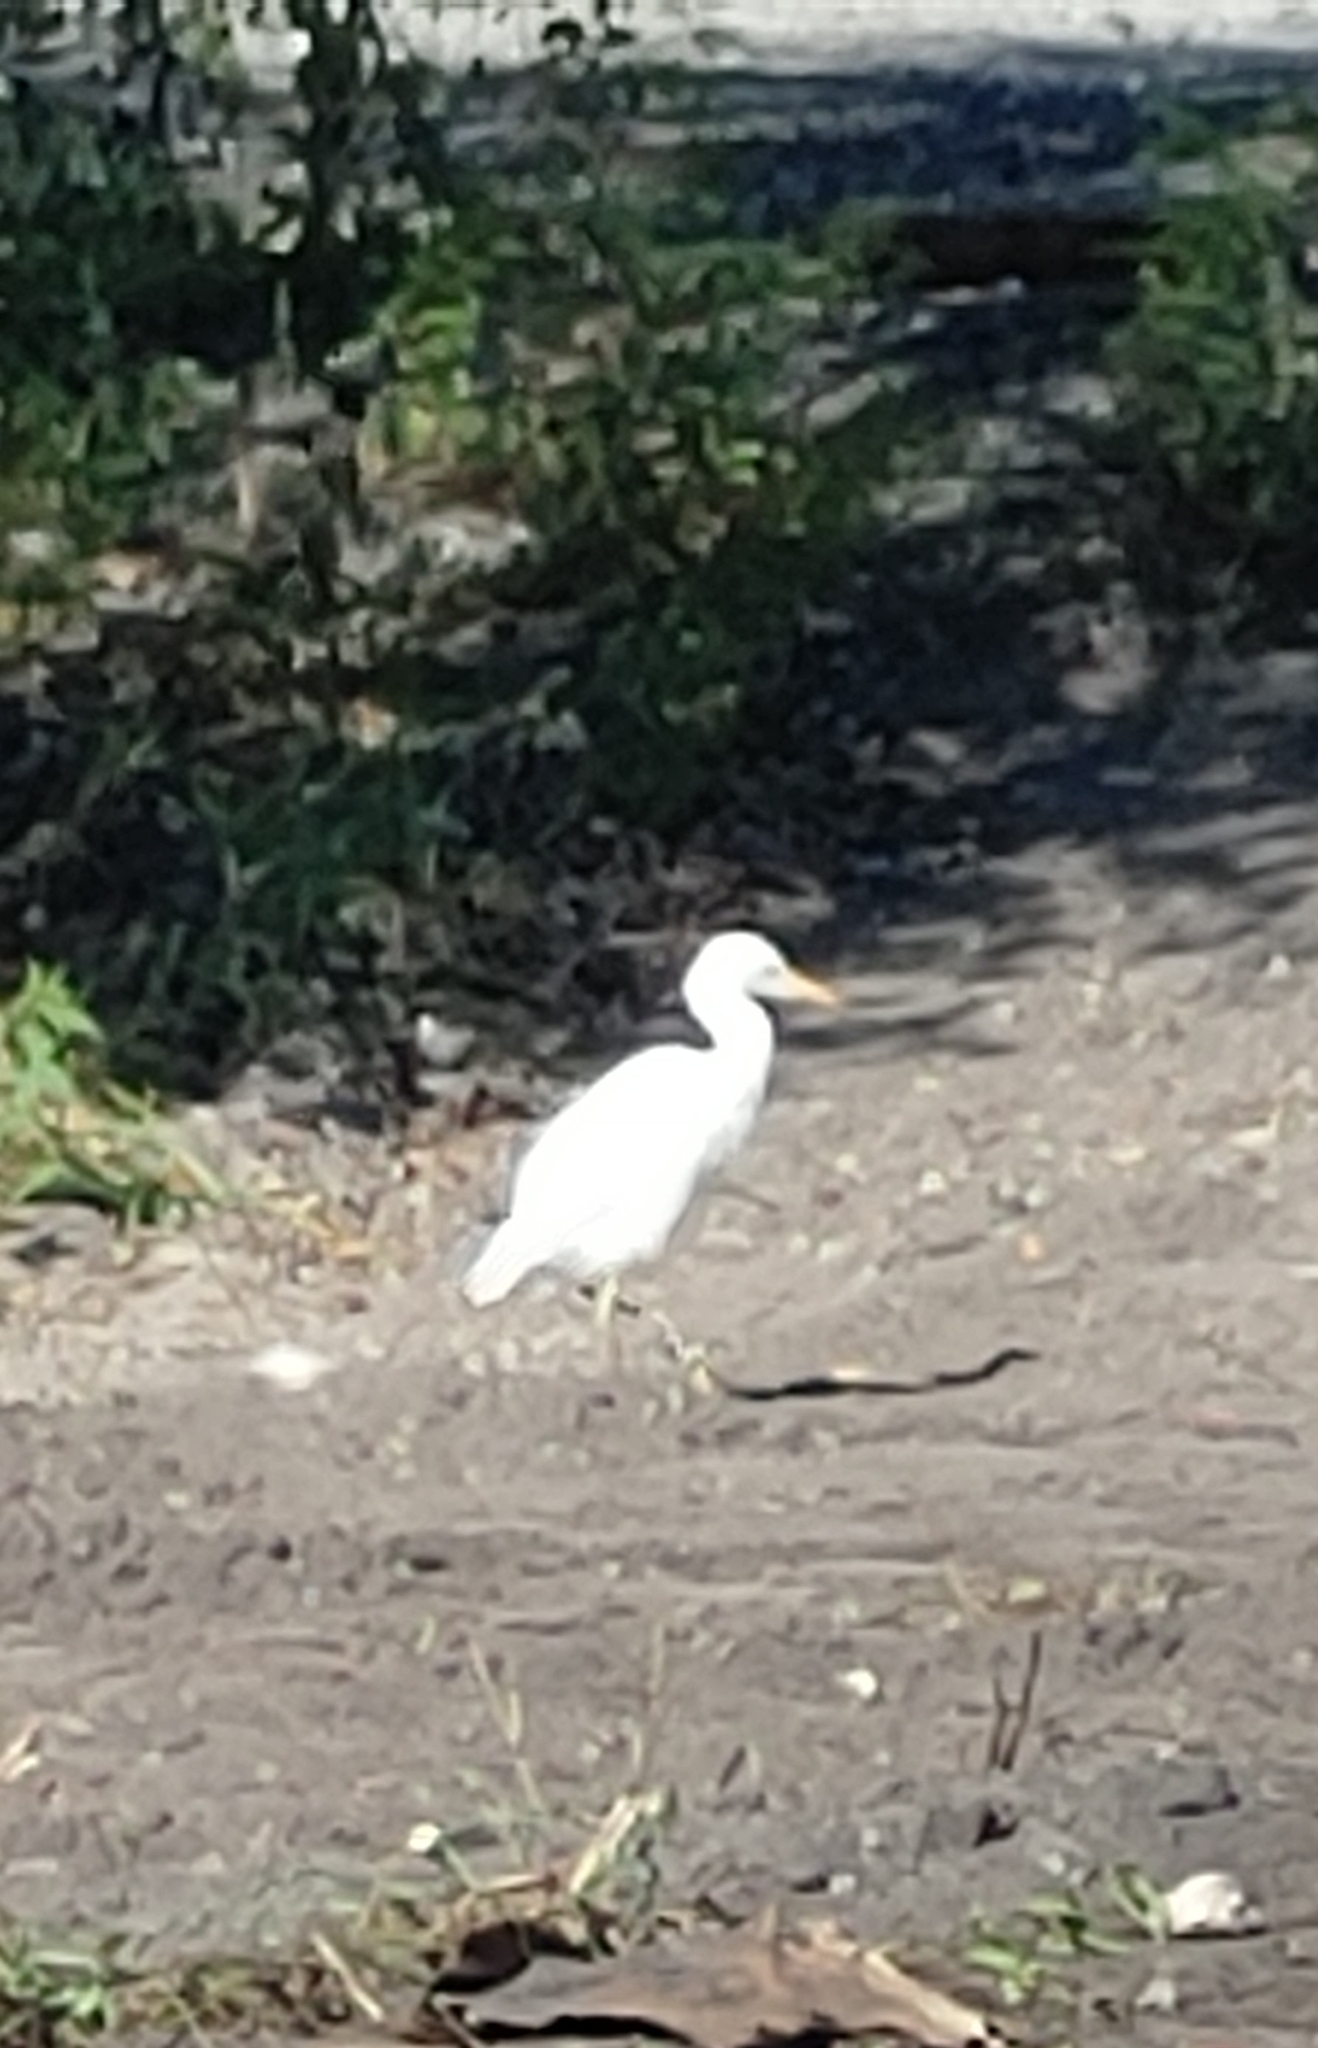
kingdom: Animalia
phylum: Chordata
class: Aves
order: Pelecaniformes
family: Ardeidae
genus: Bubulcus
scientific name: Bubulcus ibis
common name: Cattle egret
